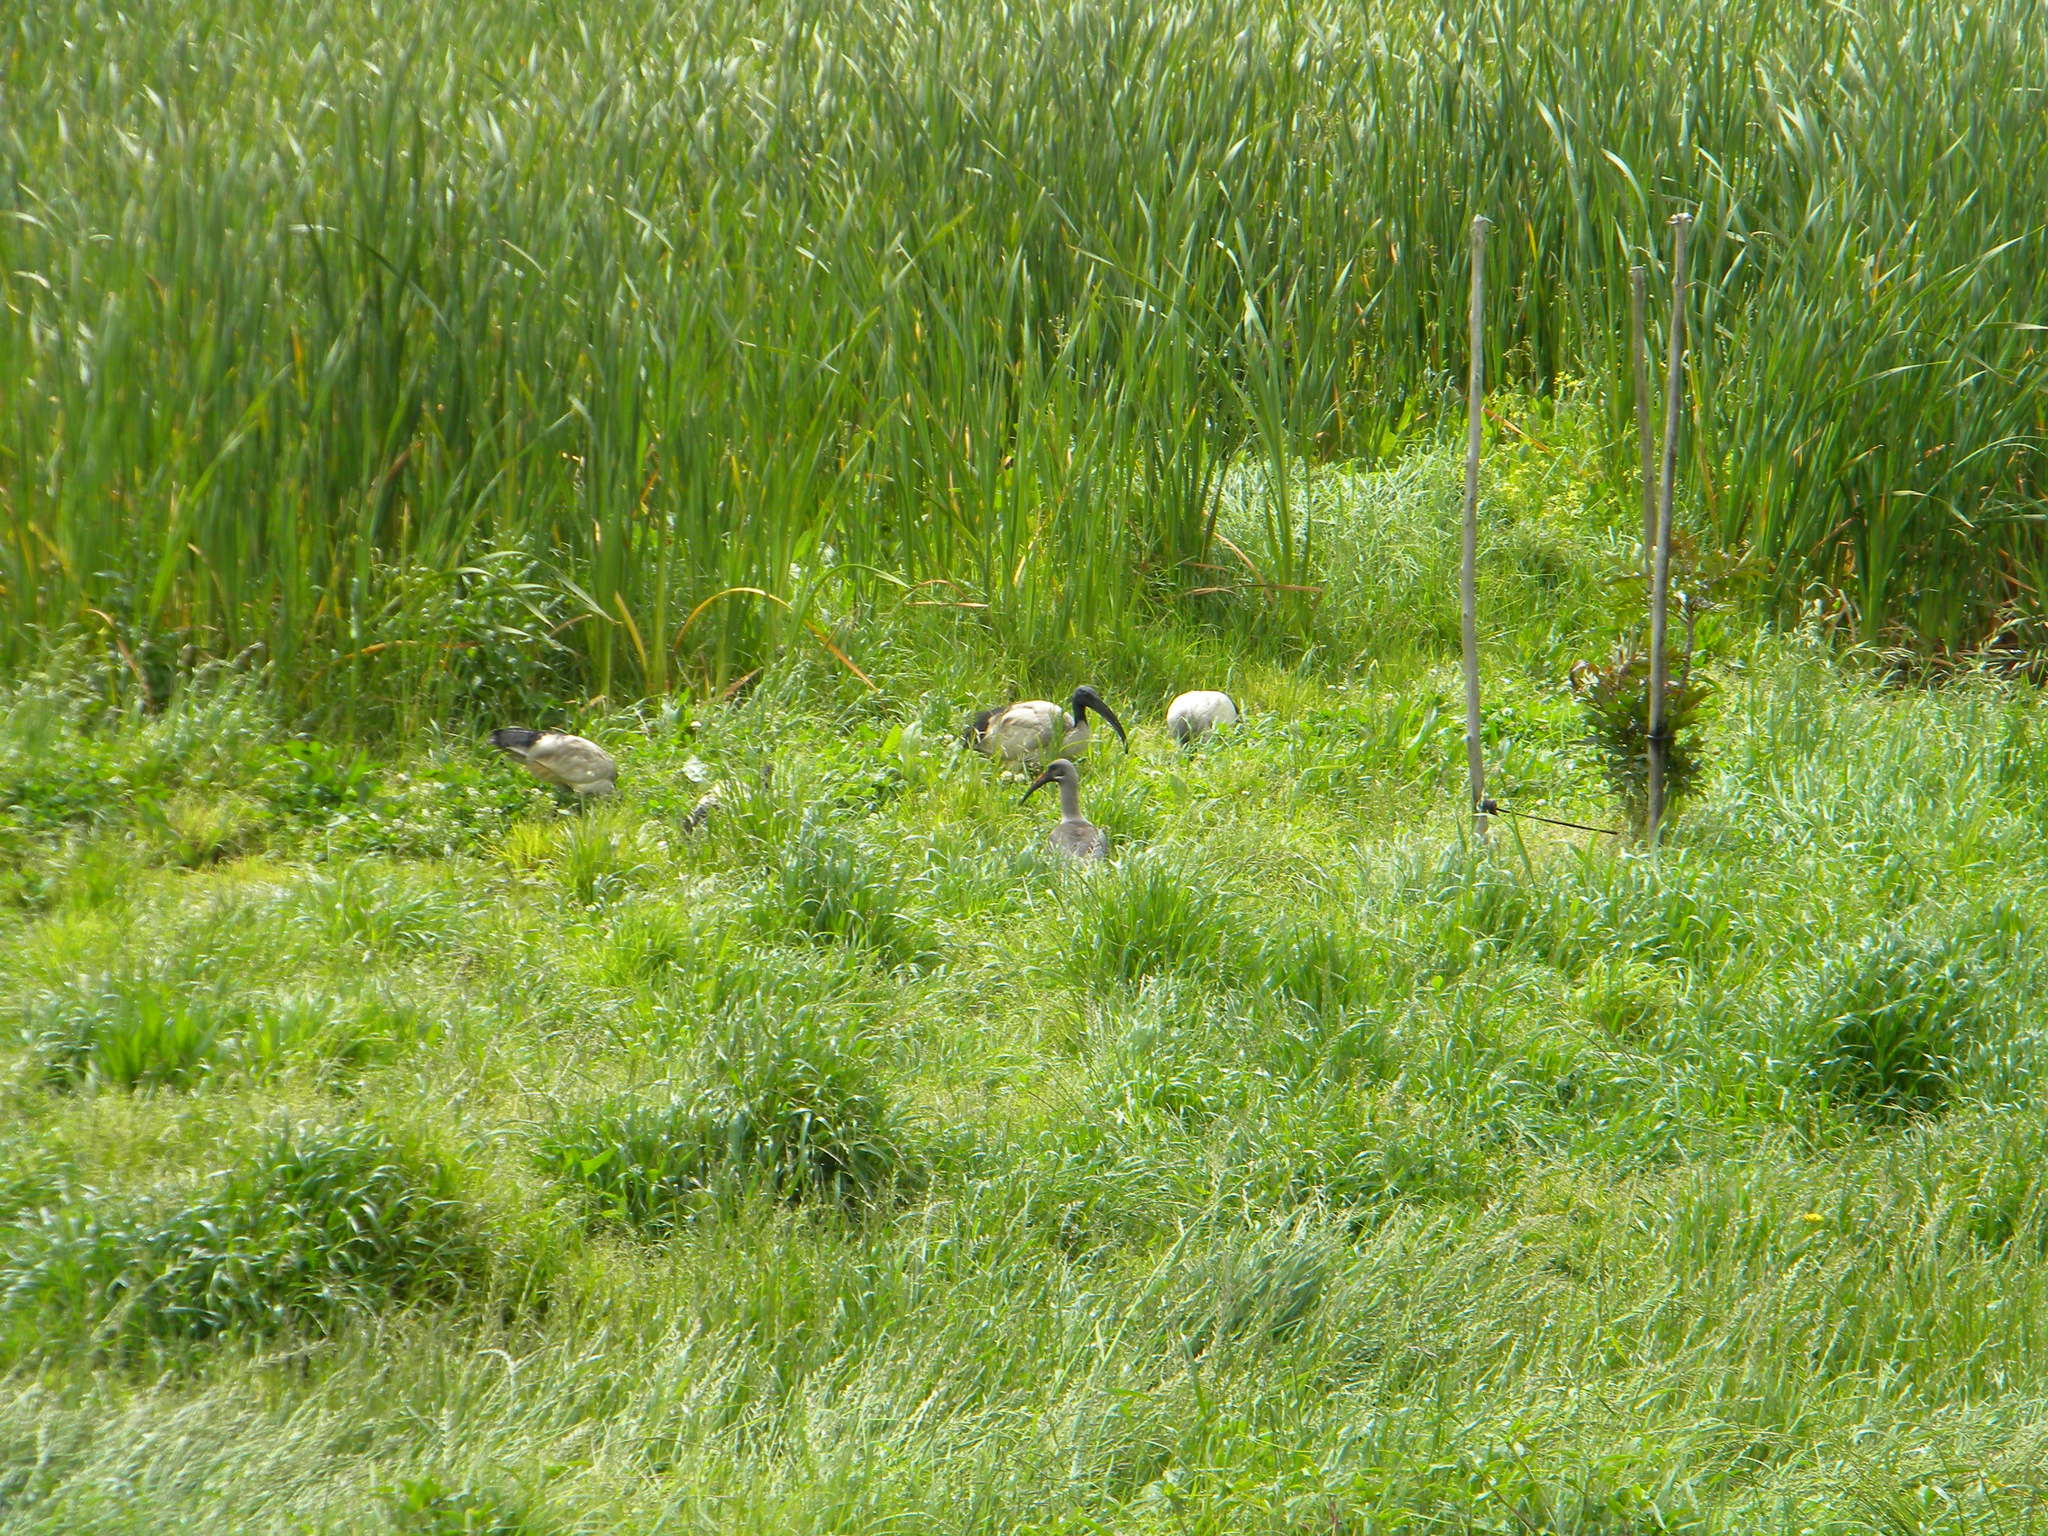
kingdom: Animalia
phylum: Chordata
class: Aves
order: Pelecaniformes
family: Threskiornithidae
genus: Threskiornis
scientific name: Threskiornis aethiopicus
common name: Sacred ibis
